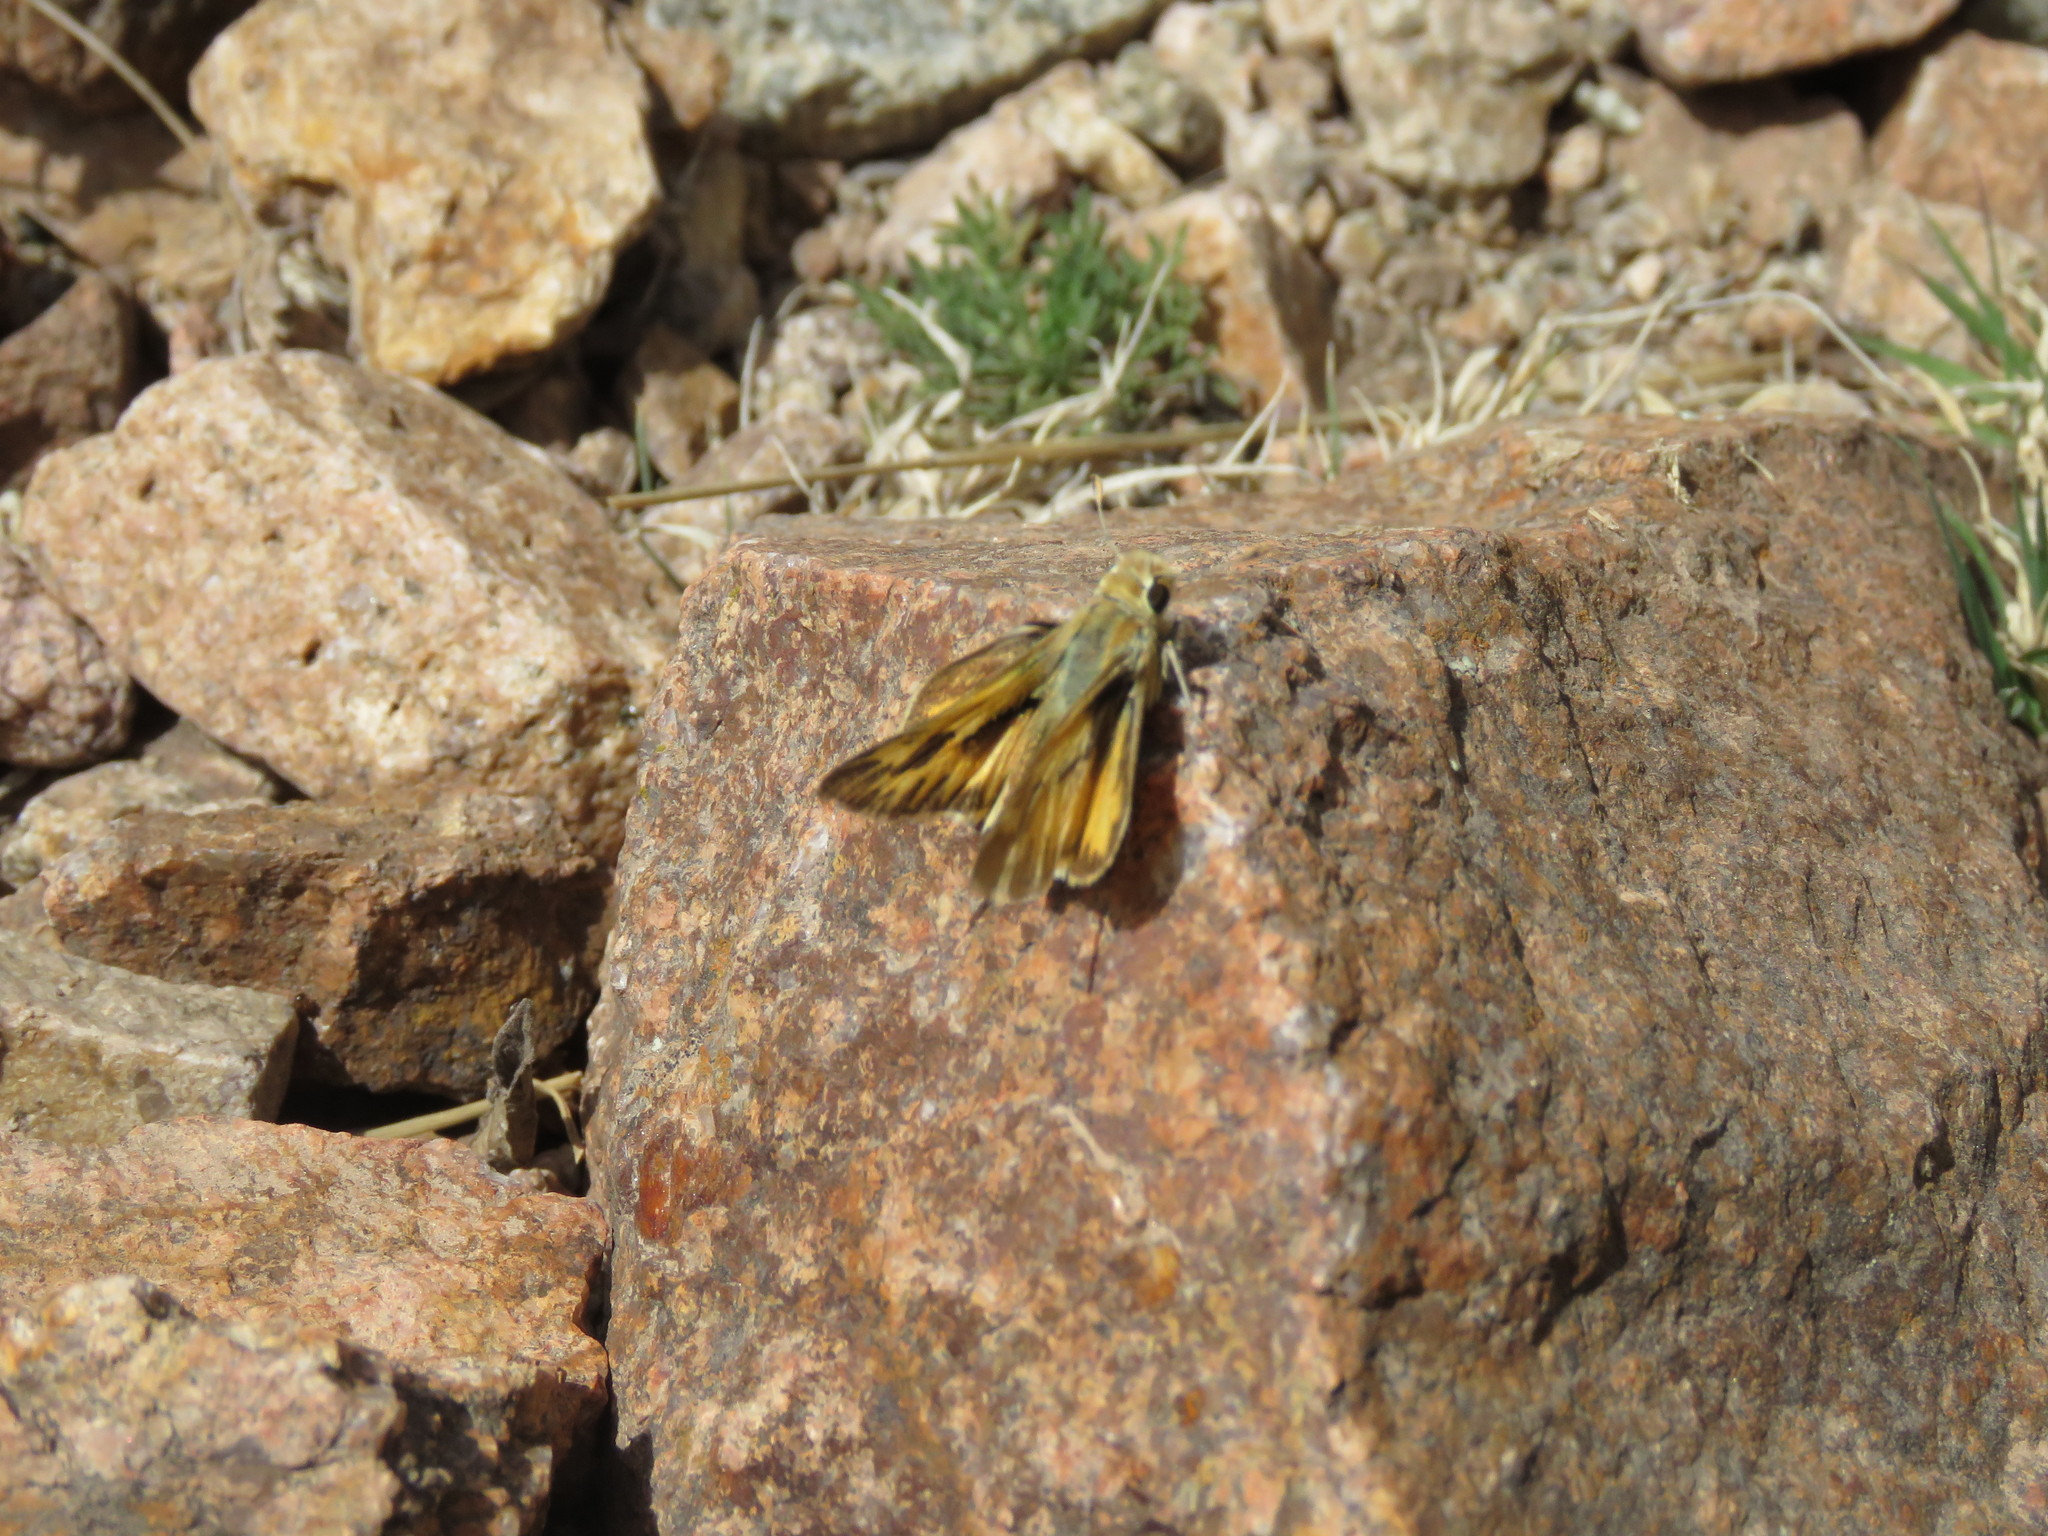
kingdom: Animalia
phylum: Arthropoda
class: Insecta
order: Lepidoptera
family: Hesperiidae
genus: Hylephila
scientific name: Hylephila phyleus
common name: Fiery skipper
